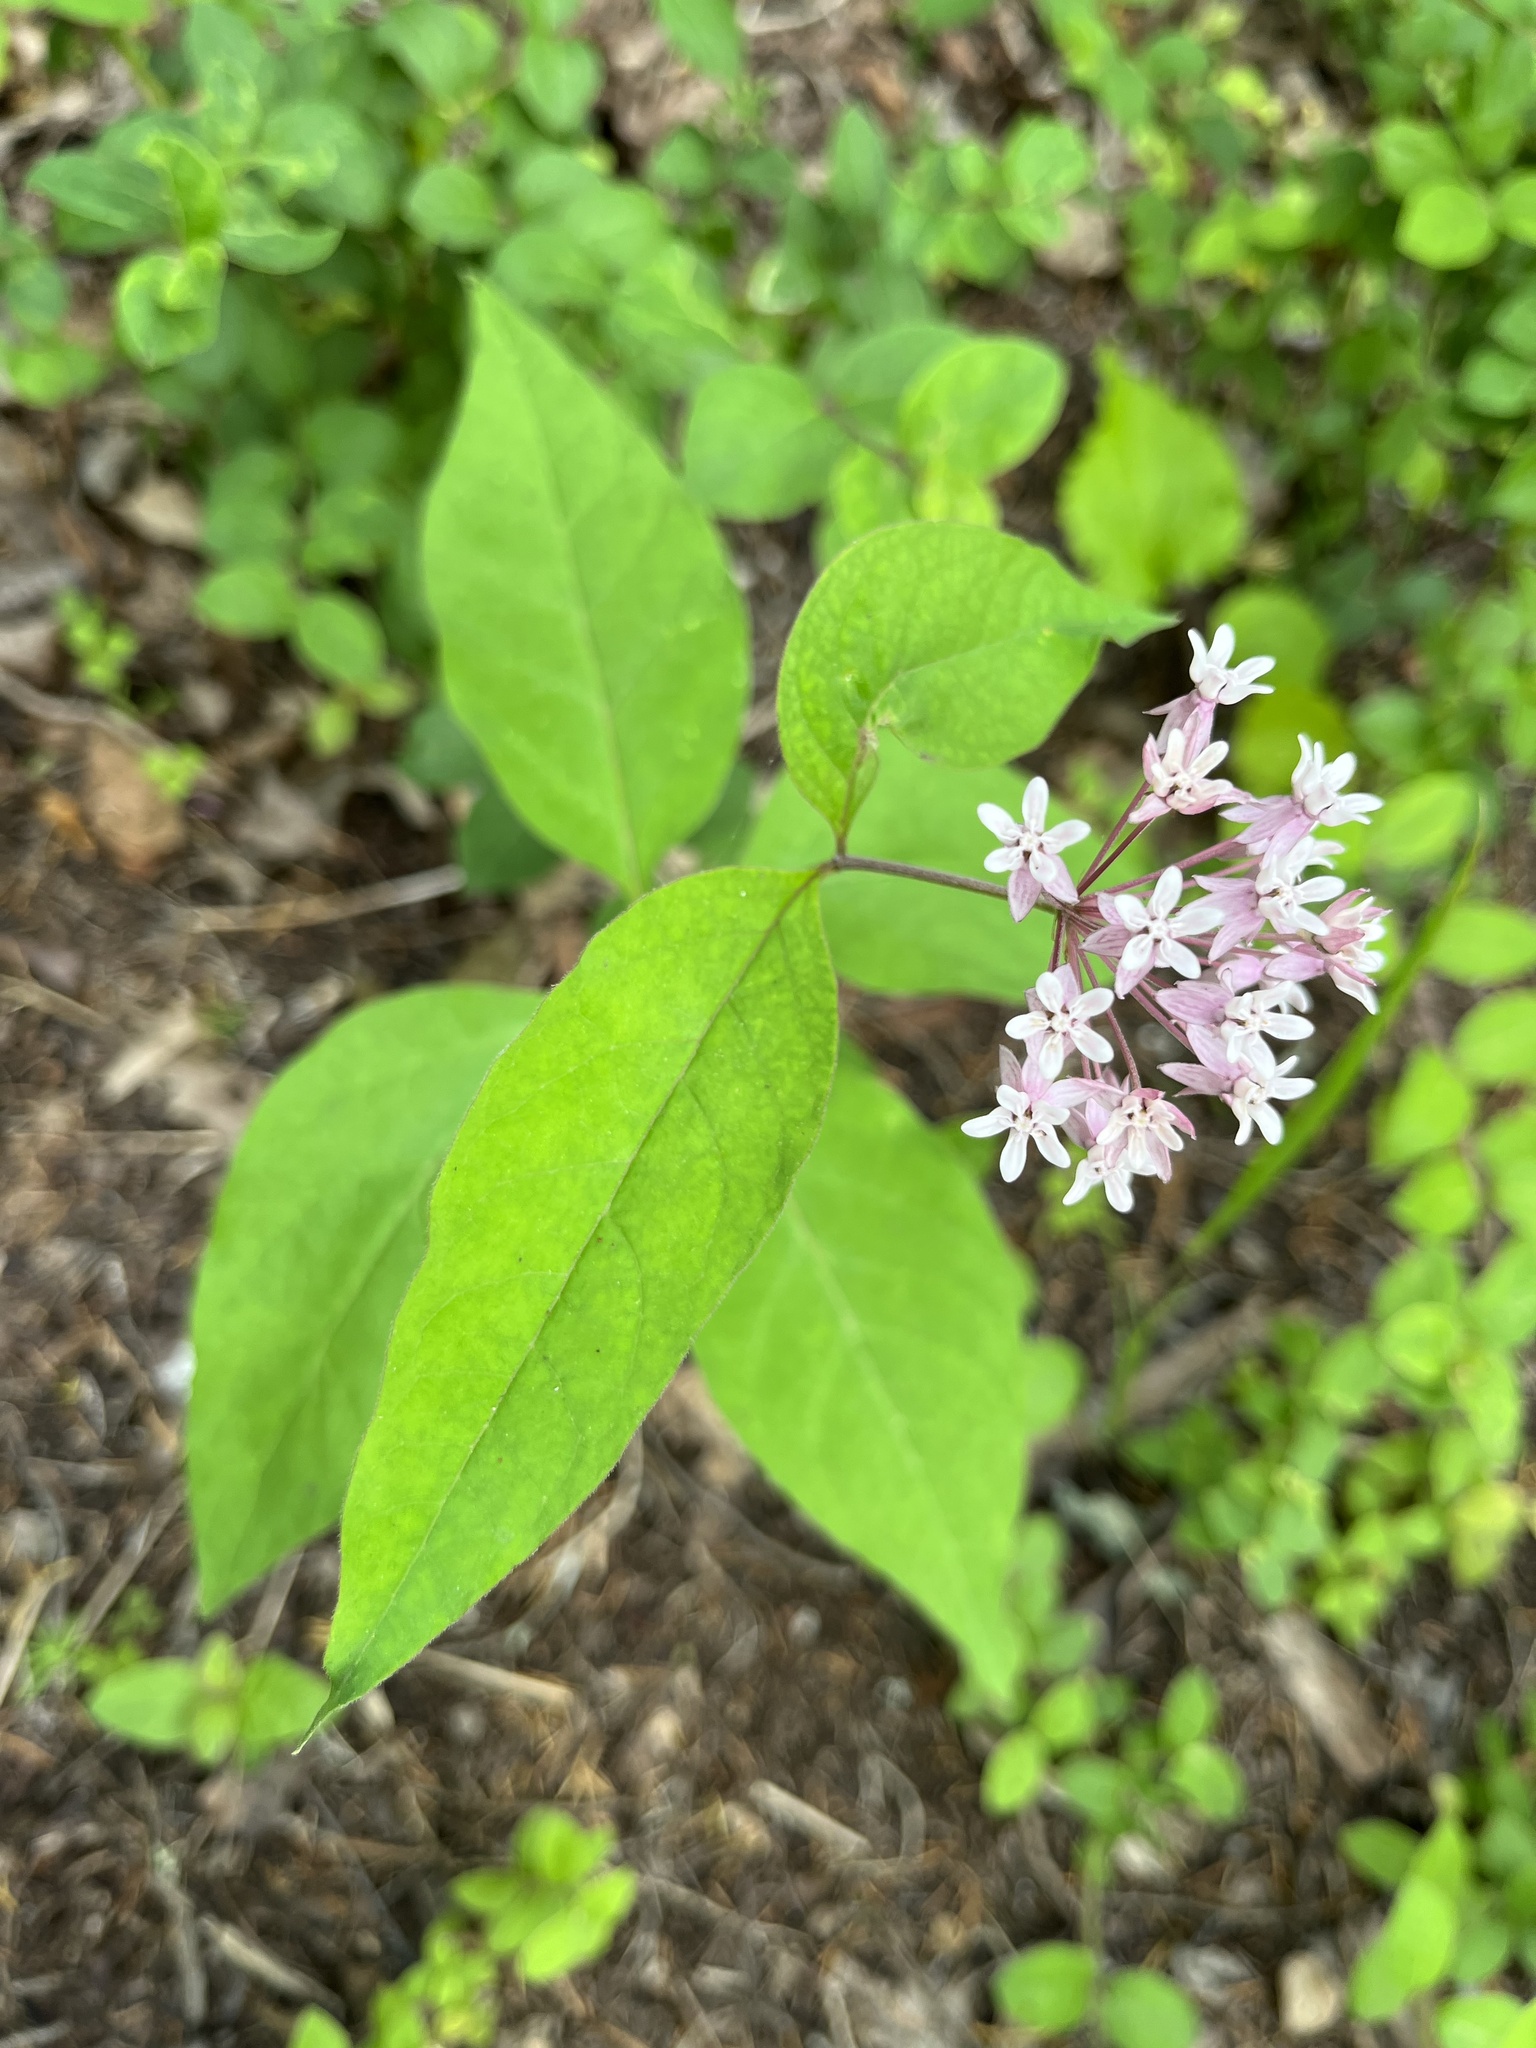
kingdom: Plantae
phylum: Tracheophyta
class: Magnoliopsida
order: Gentianales
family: Apocynaceae
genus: Asclepias
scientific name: Asclepias quadrifolia
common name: Whorled milkweed
